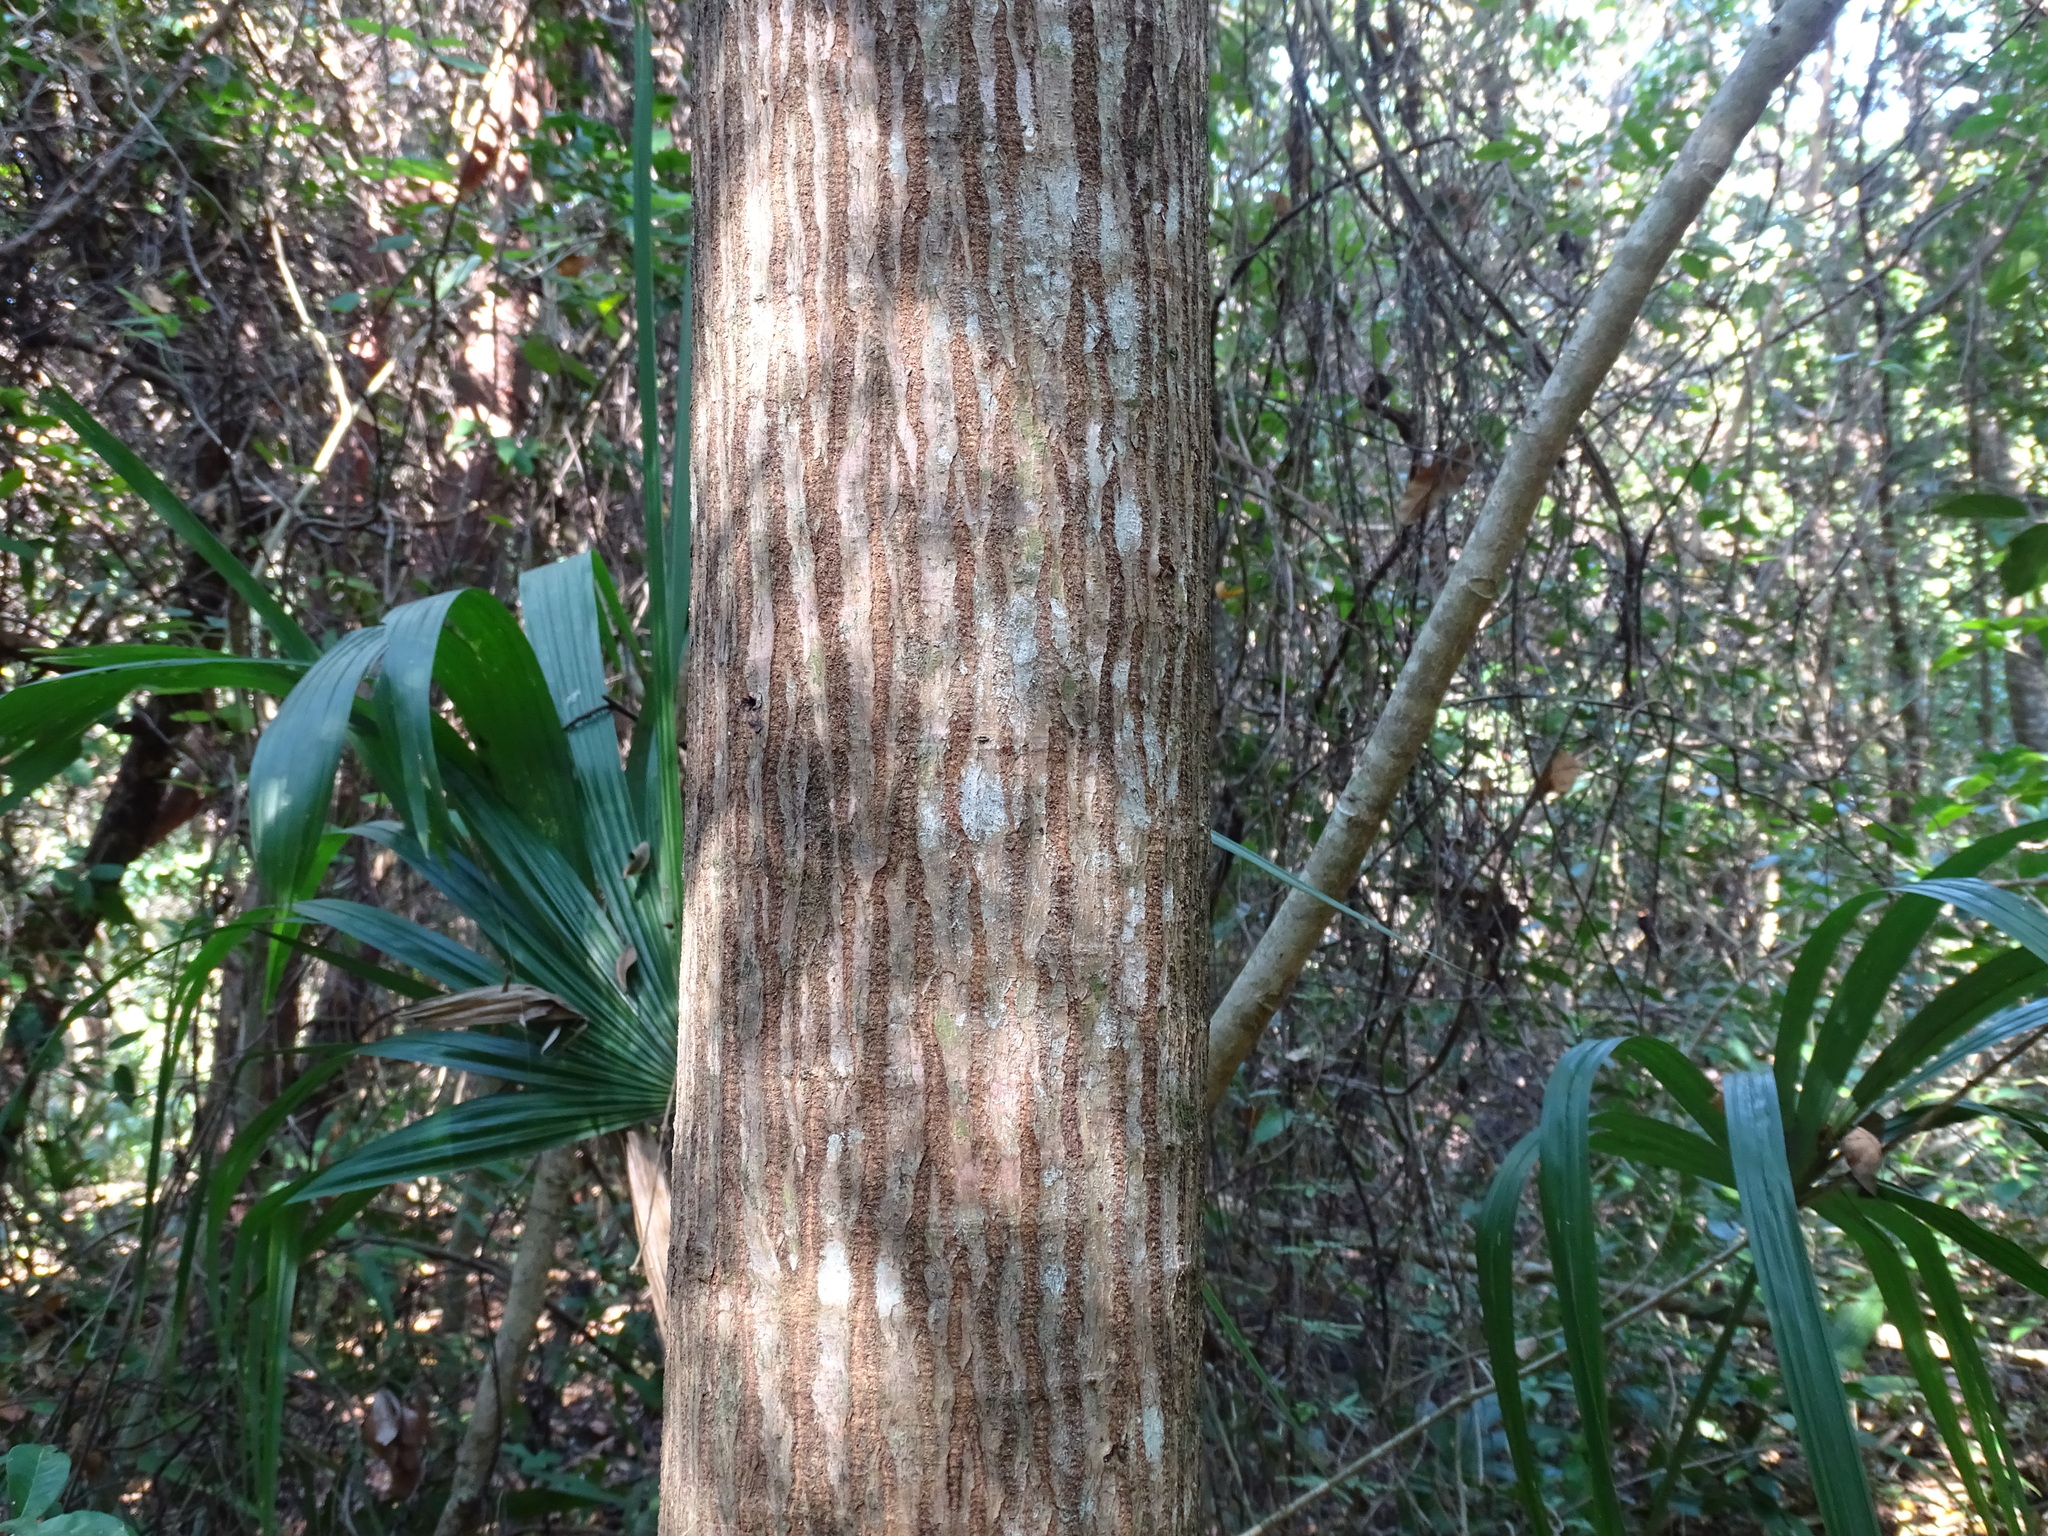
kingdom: Plantae
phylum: Tracheophyta
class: Magnoliopsida
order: Malpighiales
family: Euphorbiaceae
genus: Sapium
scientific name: Sapium glandulosum
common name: Milktree
